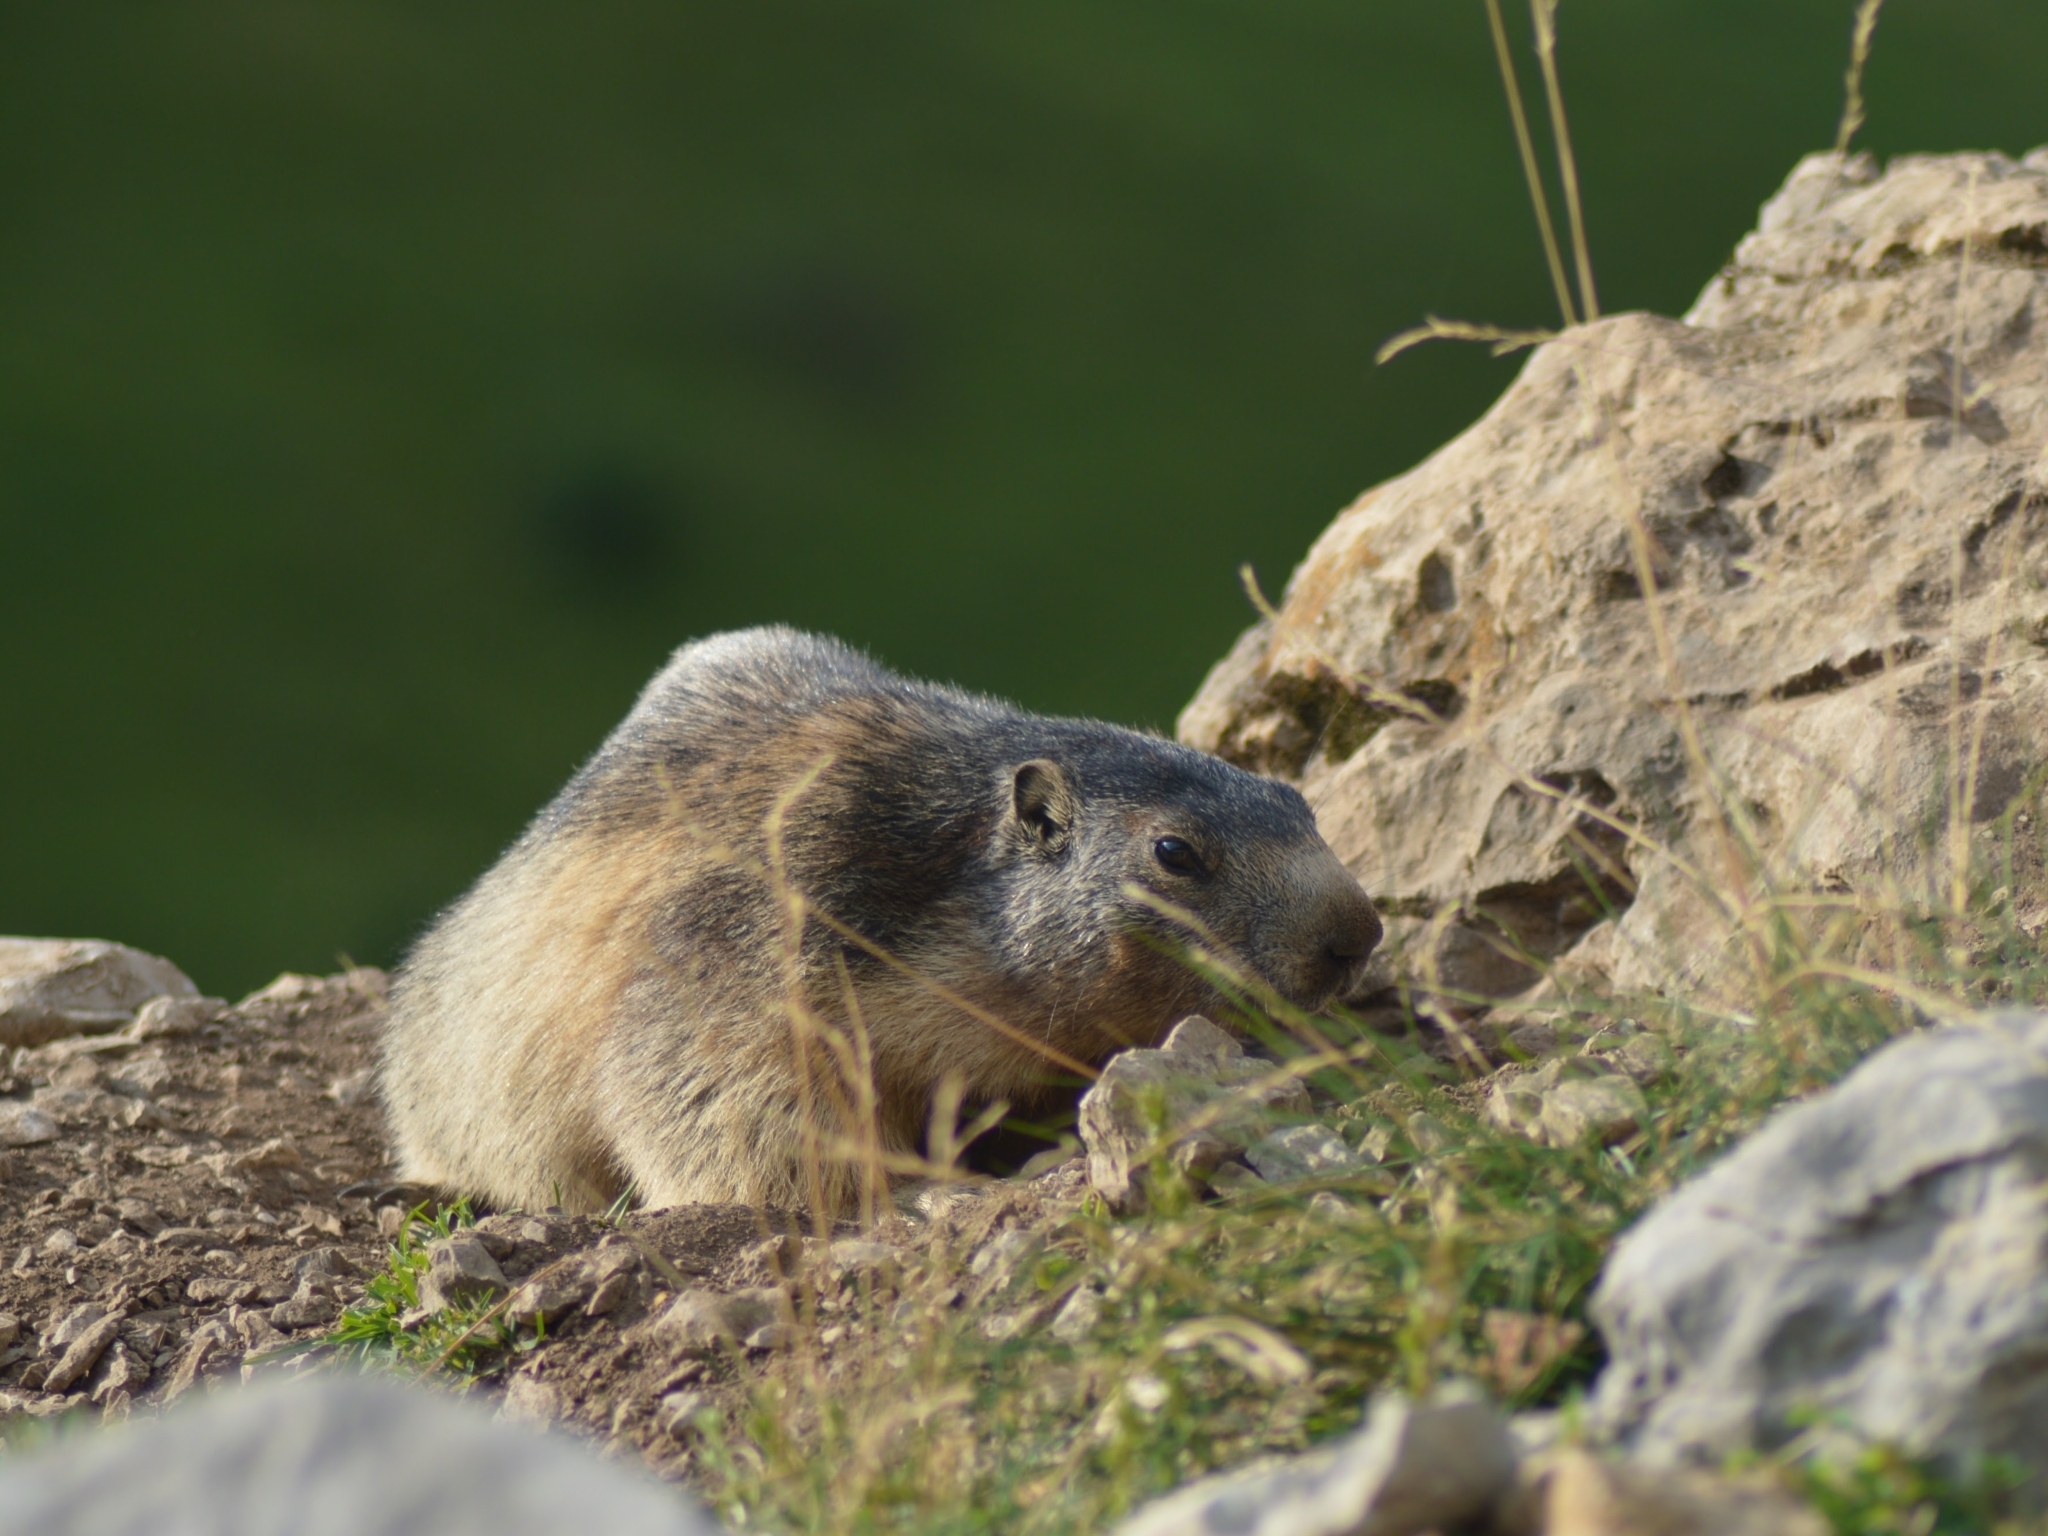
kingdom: Animalia
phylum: Chordata
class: Mammalia
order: Rodentia
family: Sciuridae
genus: Marmota
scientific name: Marmota marmota
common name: Alpine marmot
